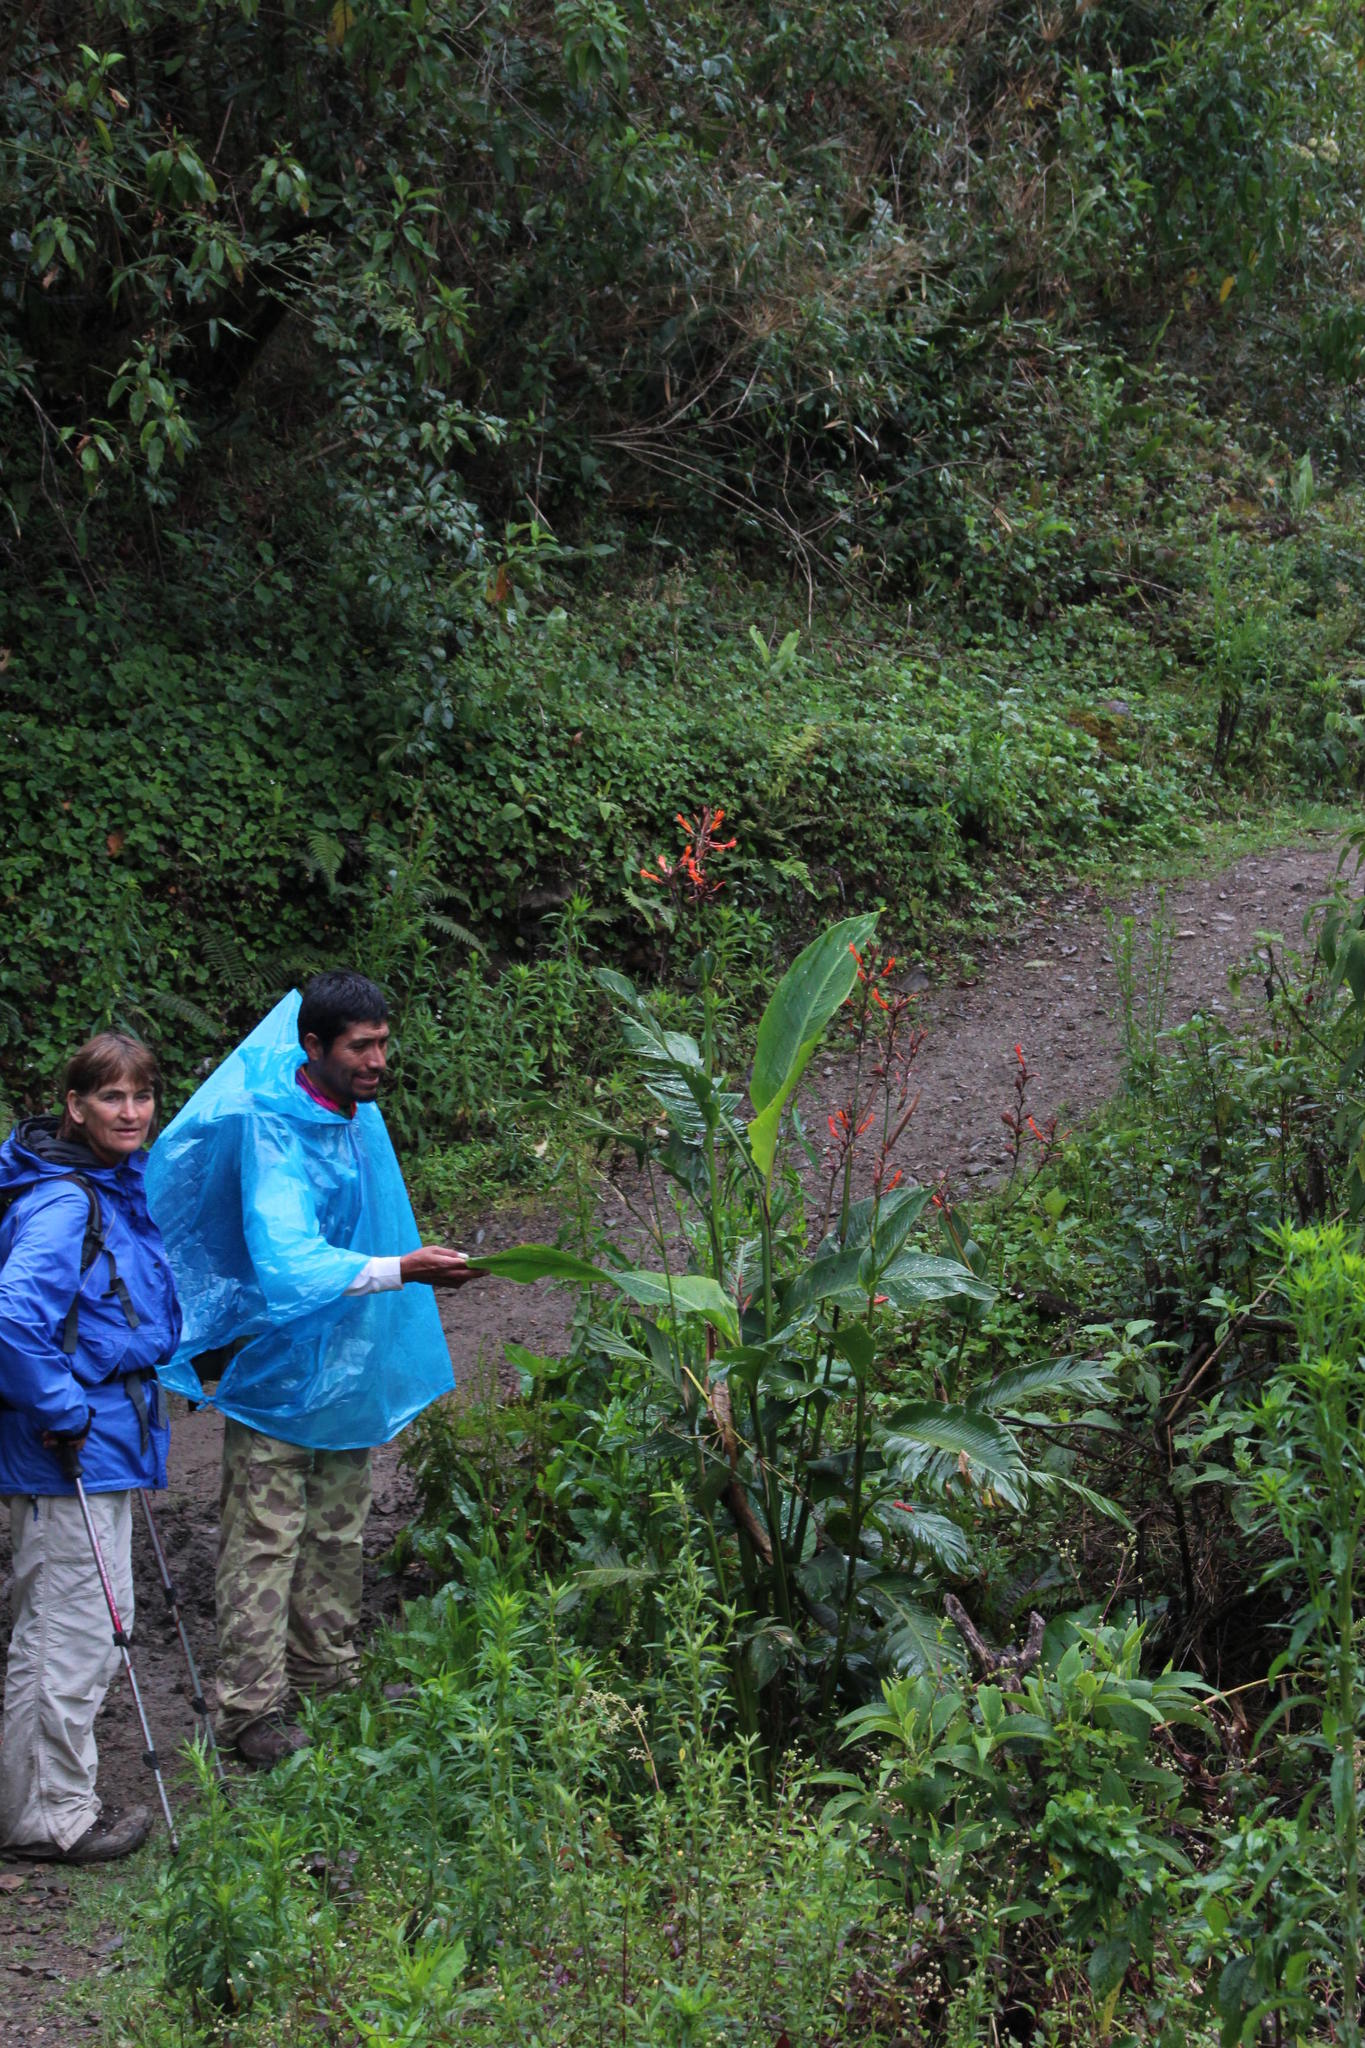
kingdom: Plantae
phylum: Tracheophyta
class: Liliopsida
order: Zingiberales
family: Cannaceae
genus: Canna
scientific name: Canna indica
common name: Indian shot
